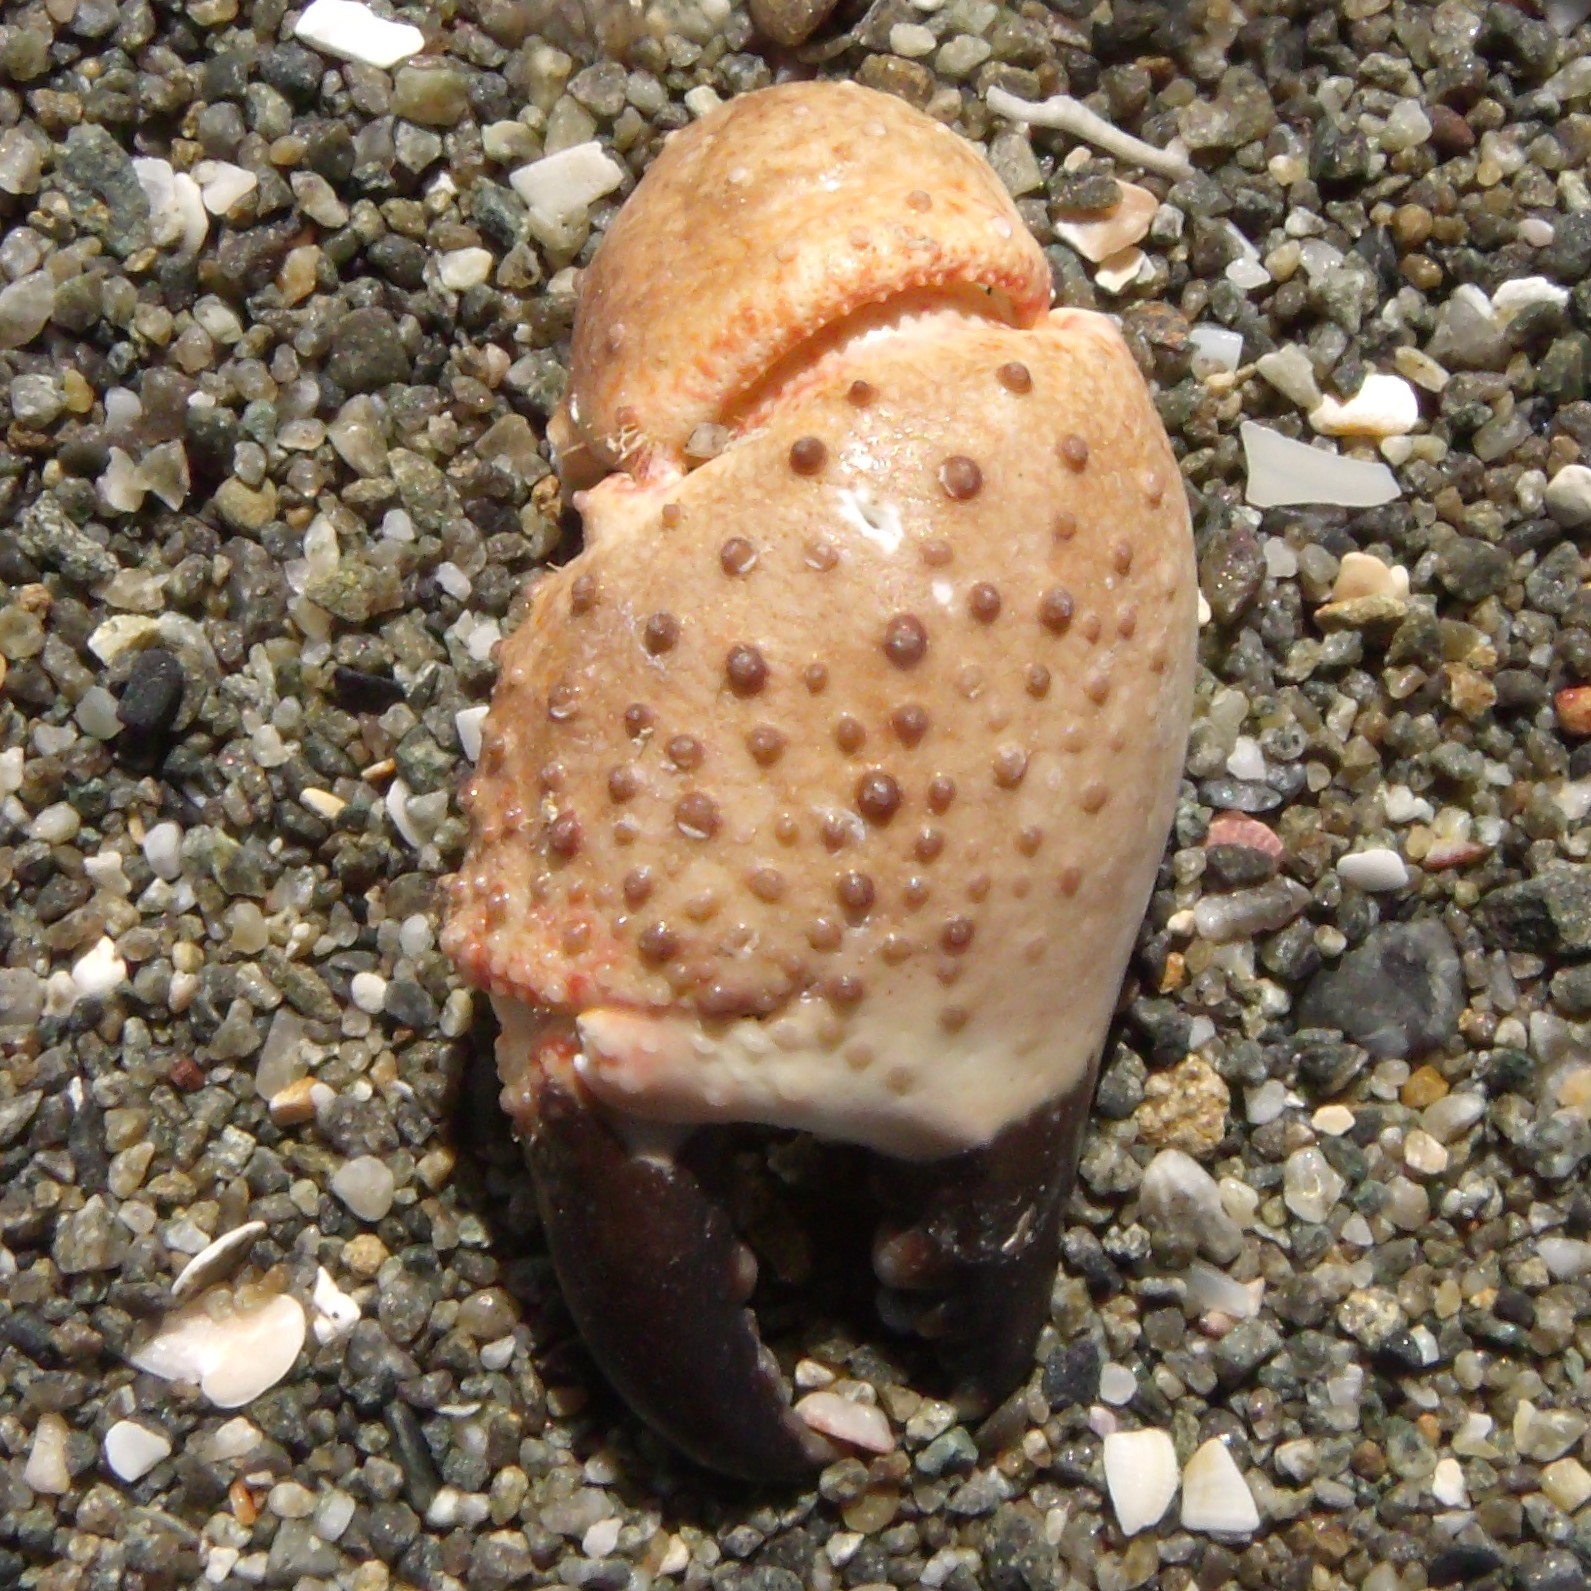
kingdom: Animalia
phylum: Arthropoda
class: Malacostraca
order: Decapoda
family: Pilumnidae
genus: Pilumnus
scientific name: Pilumnus lumpinus
